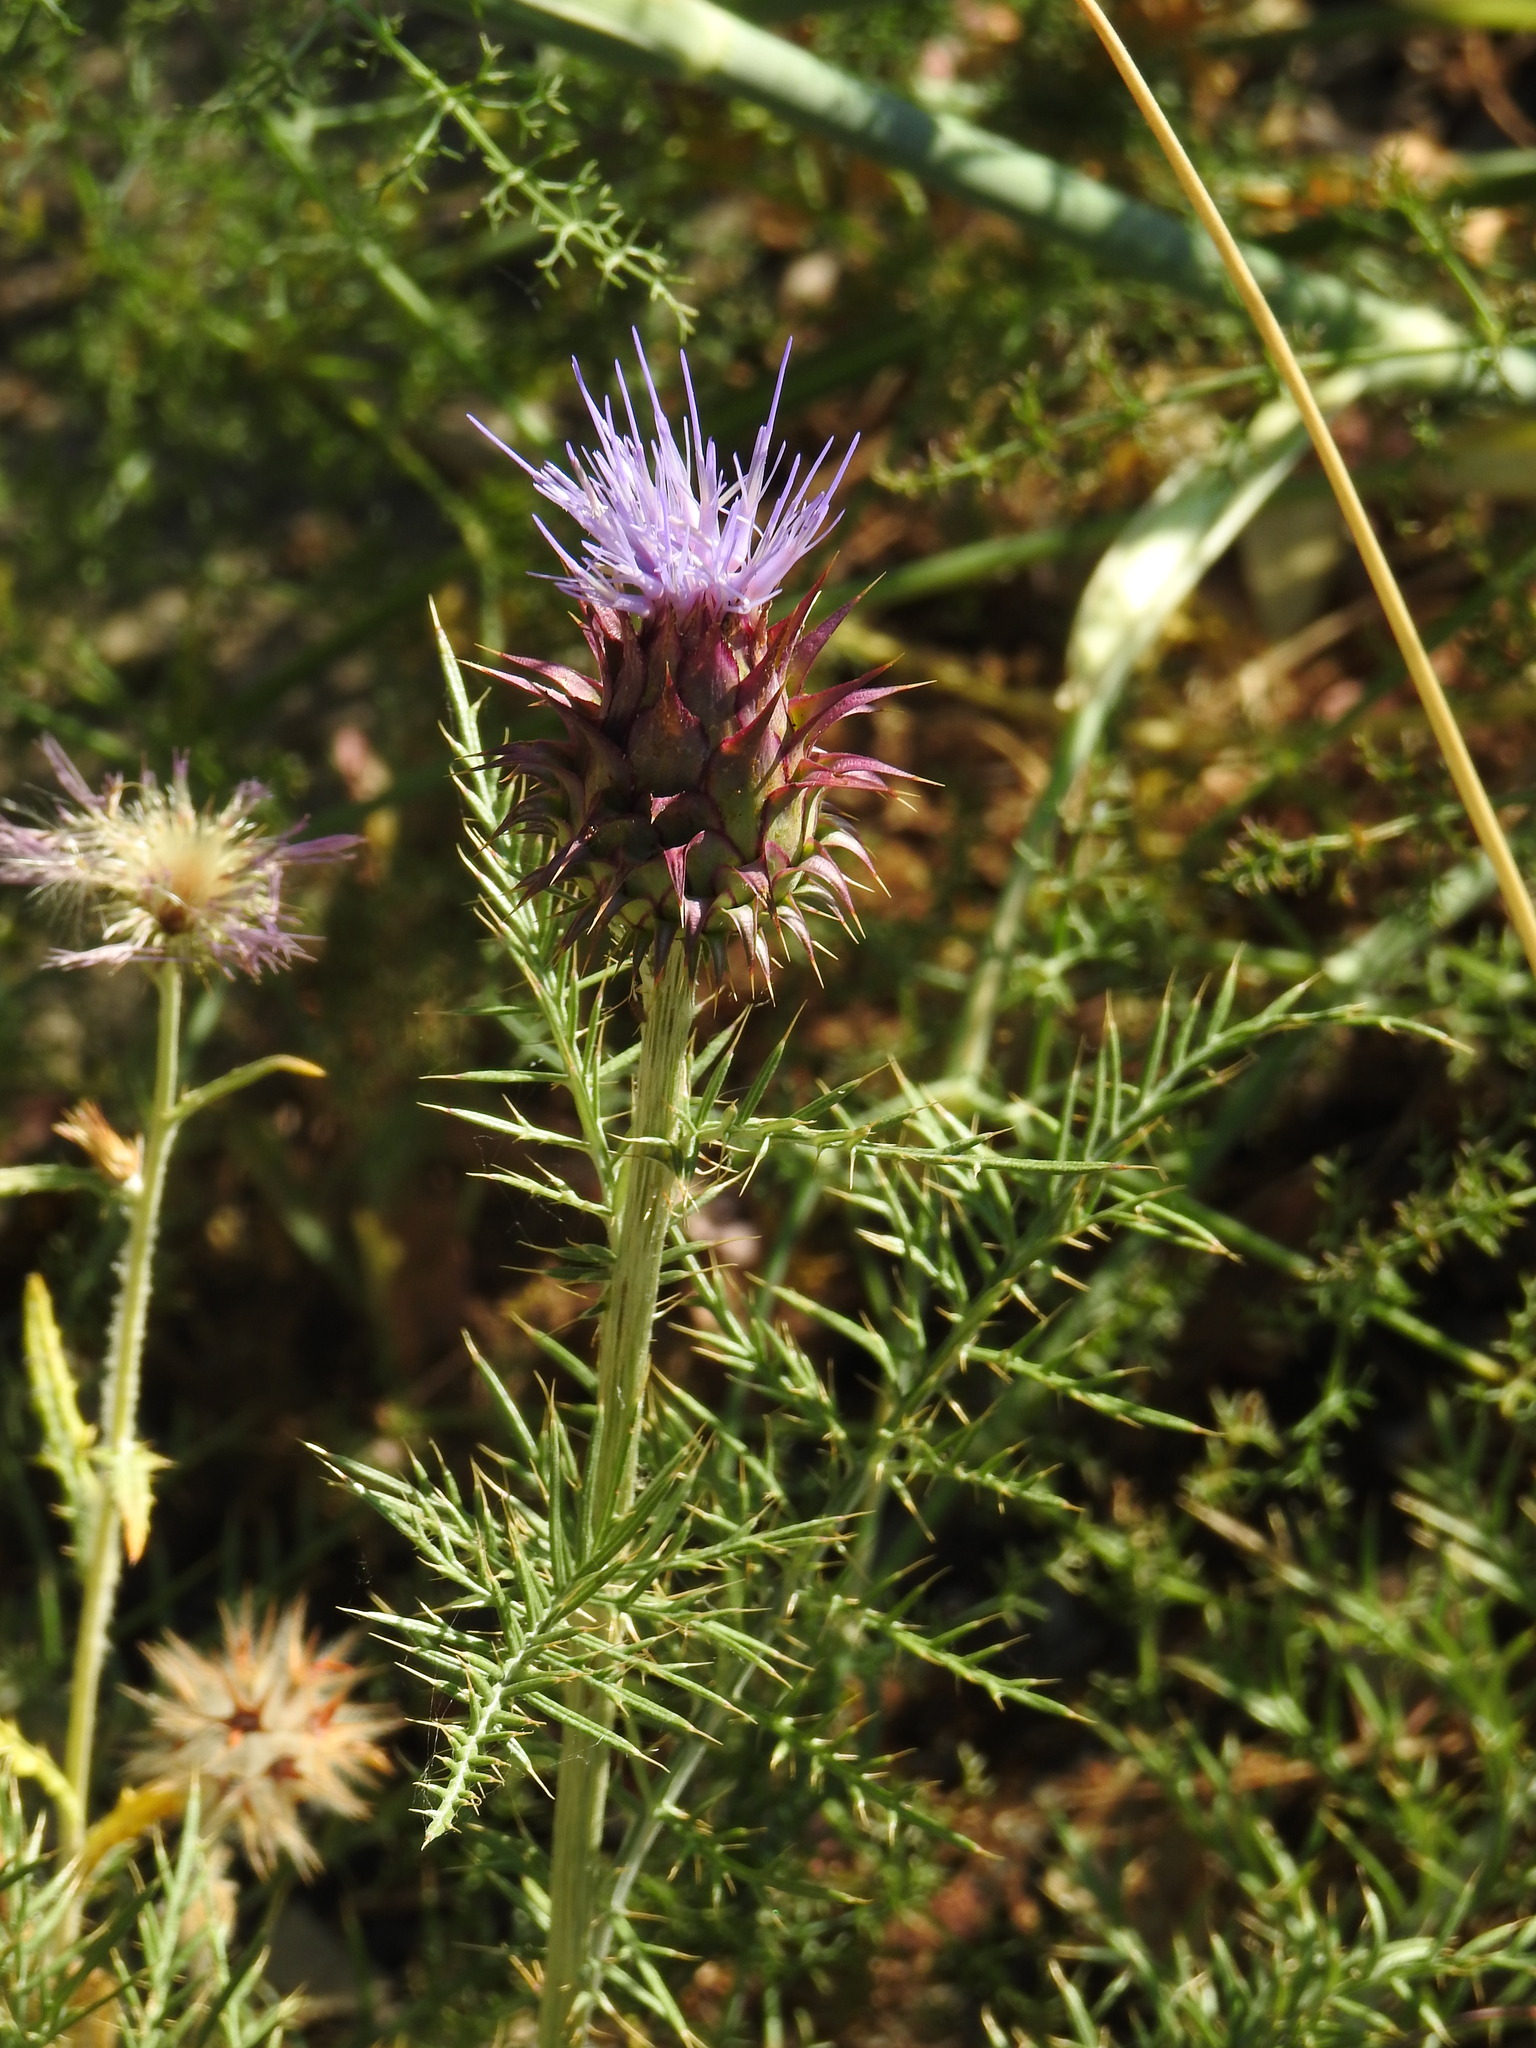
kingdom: Plantae
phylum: Tracheophyta
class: Magnoliopsida
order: Asterales
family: Asteraceae
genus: Cynara
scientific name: Cynara humilis
